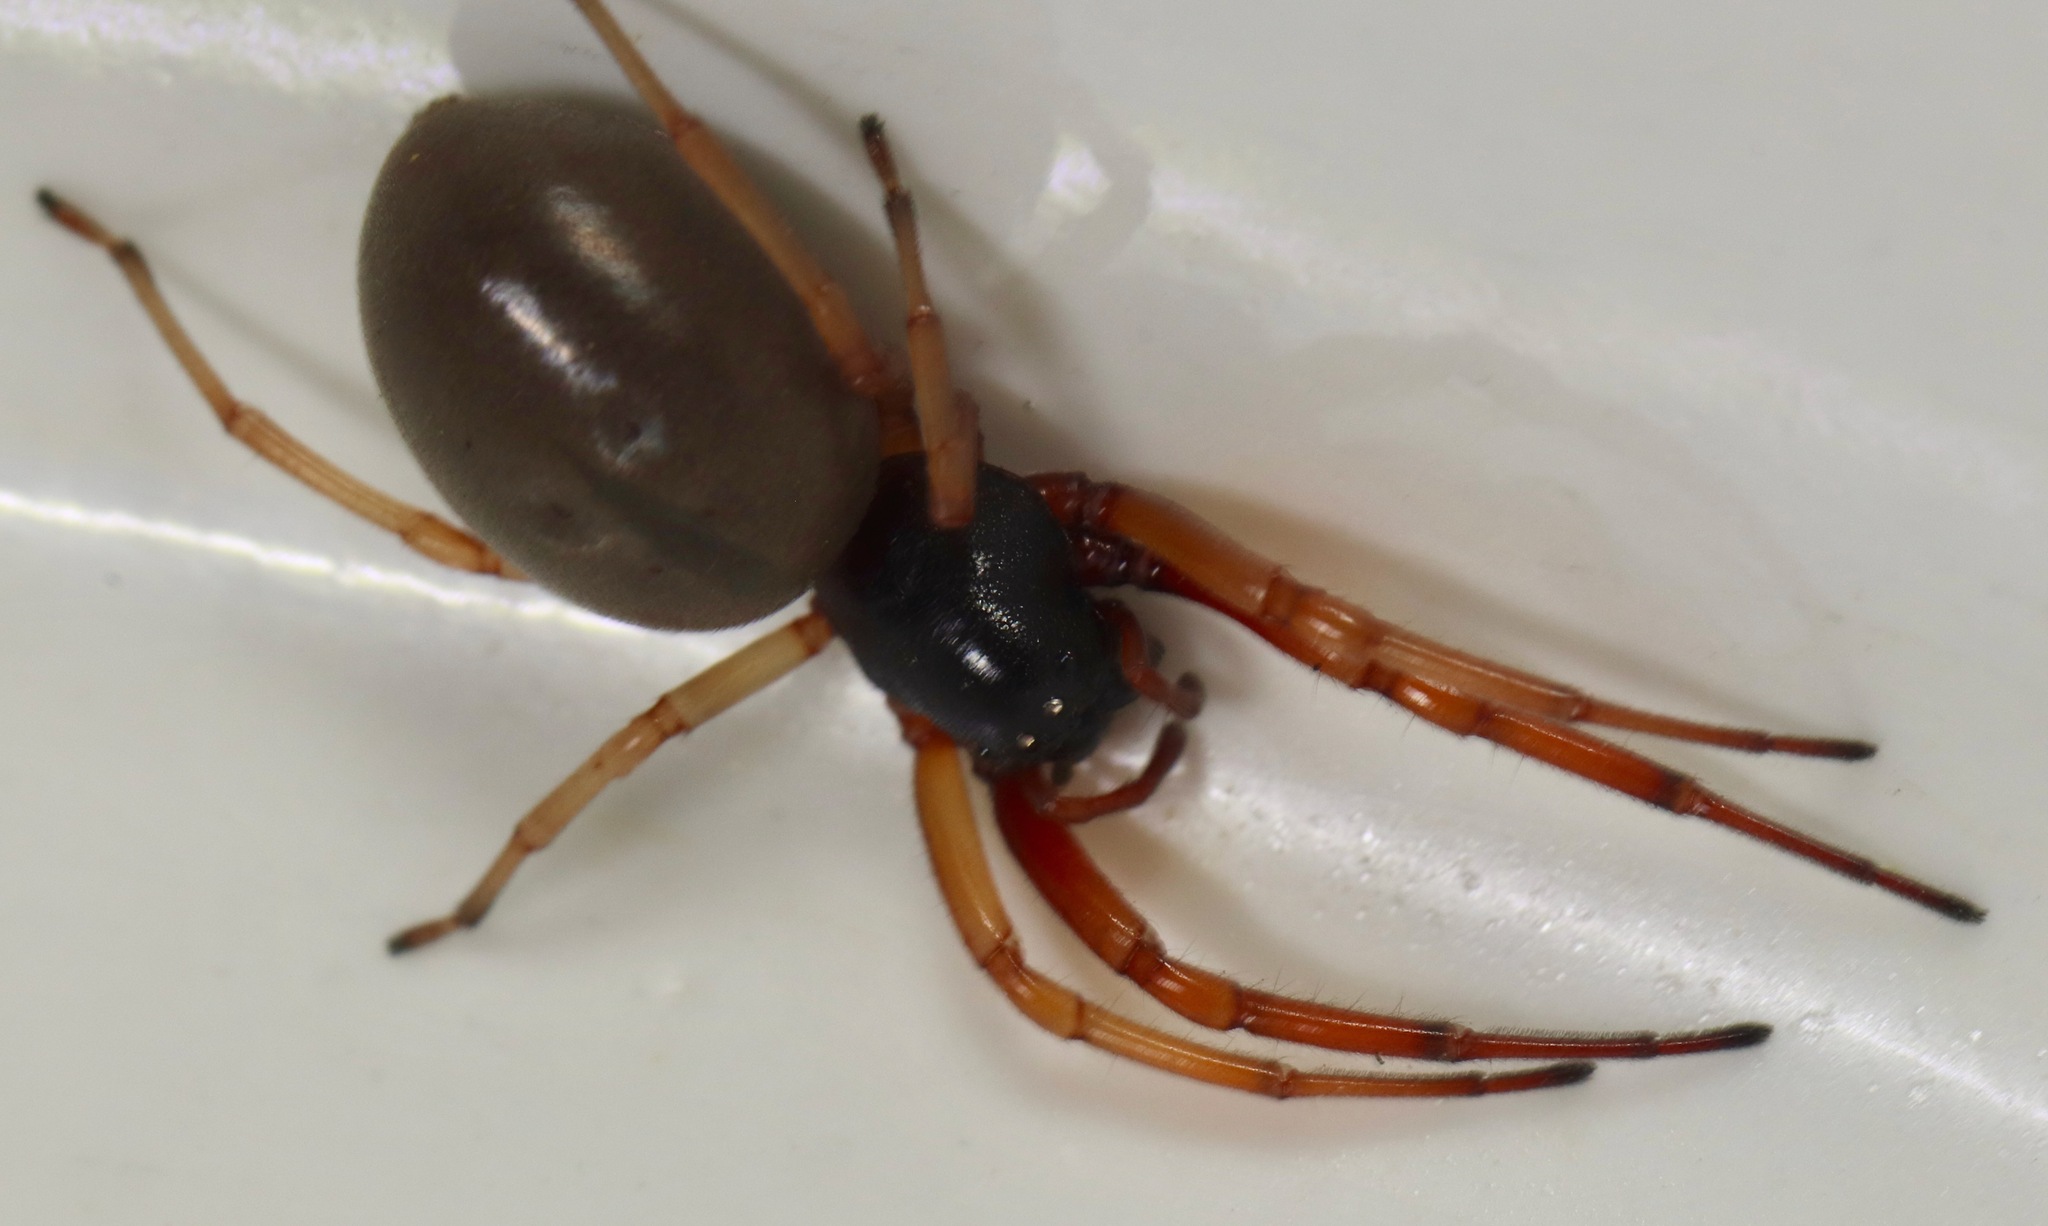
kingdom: Animalia
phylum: Arthropoda
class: Arachnida
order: Araneae
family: Trachelidae
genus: Trachelas
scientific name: Trachelas tranquillus
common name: Broad-faced sac spider
